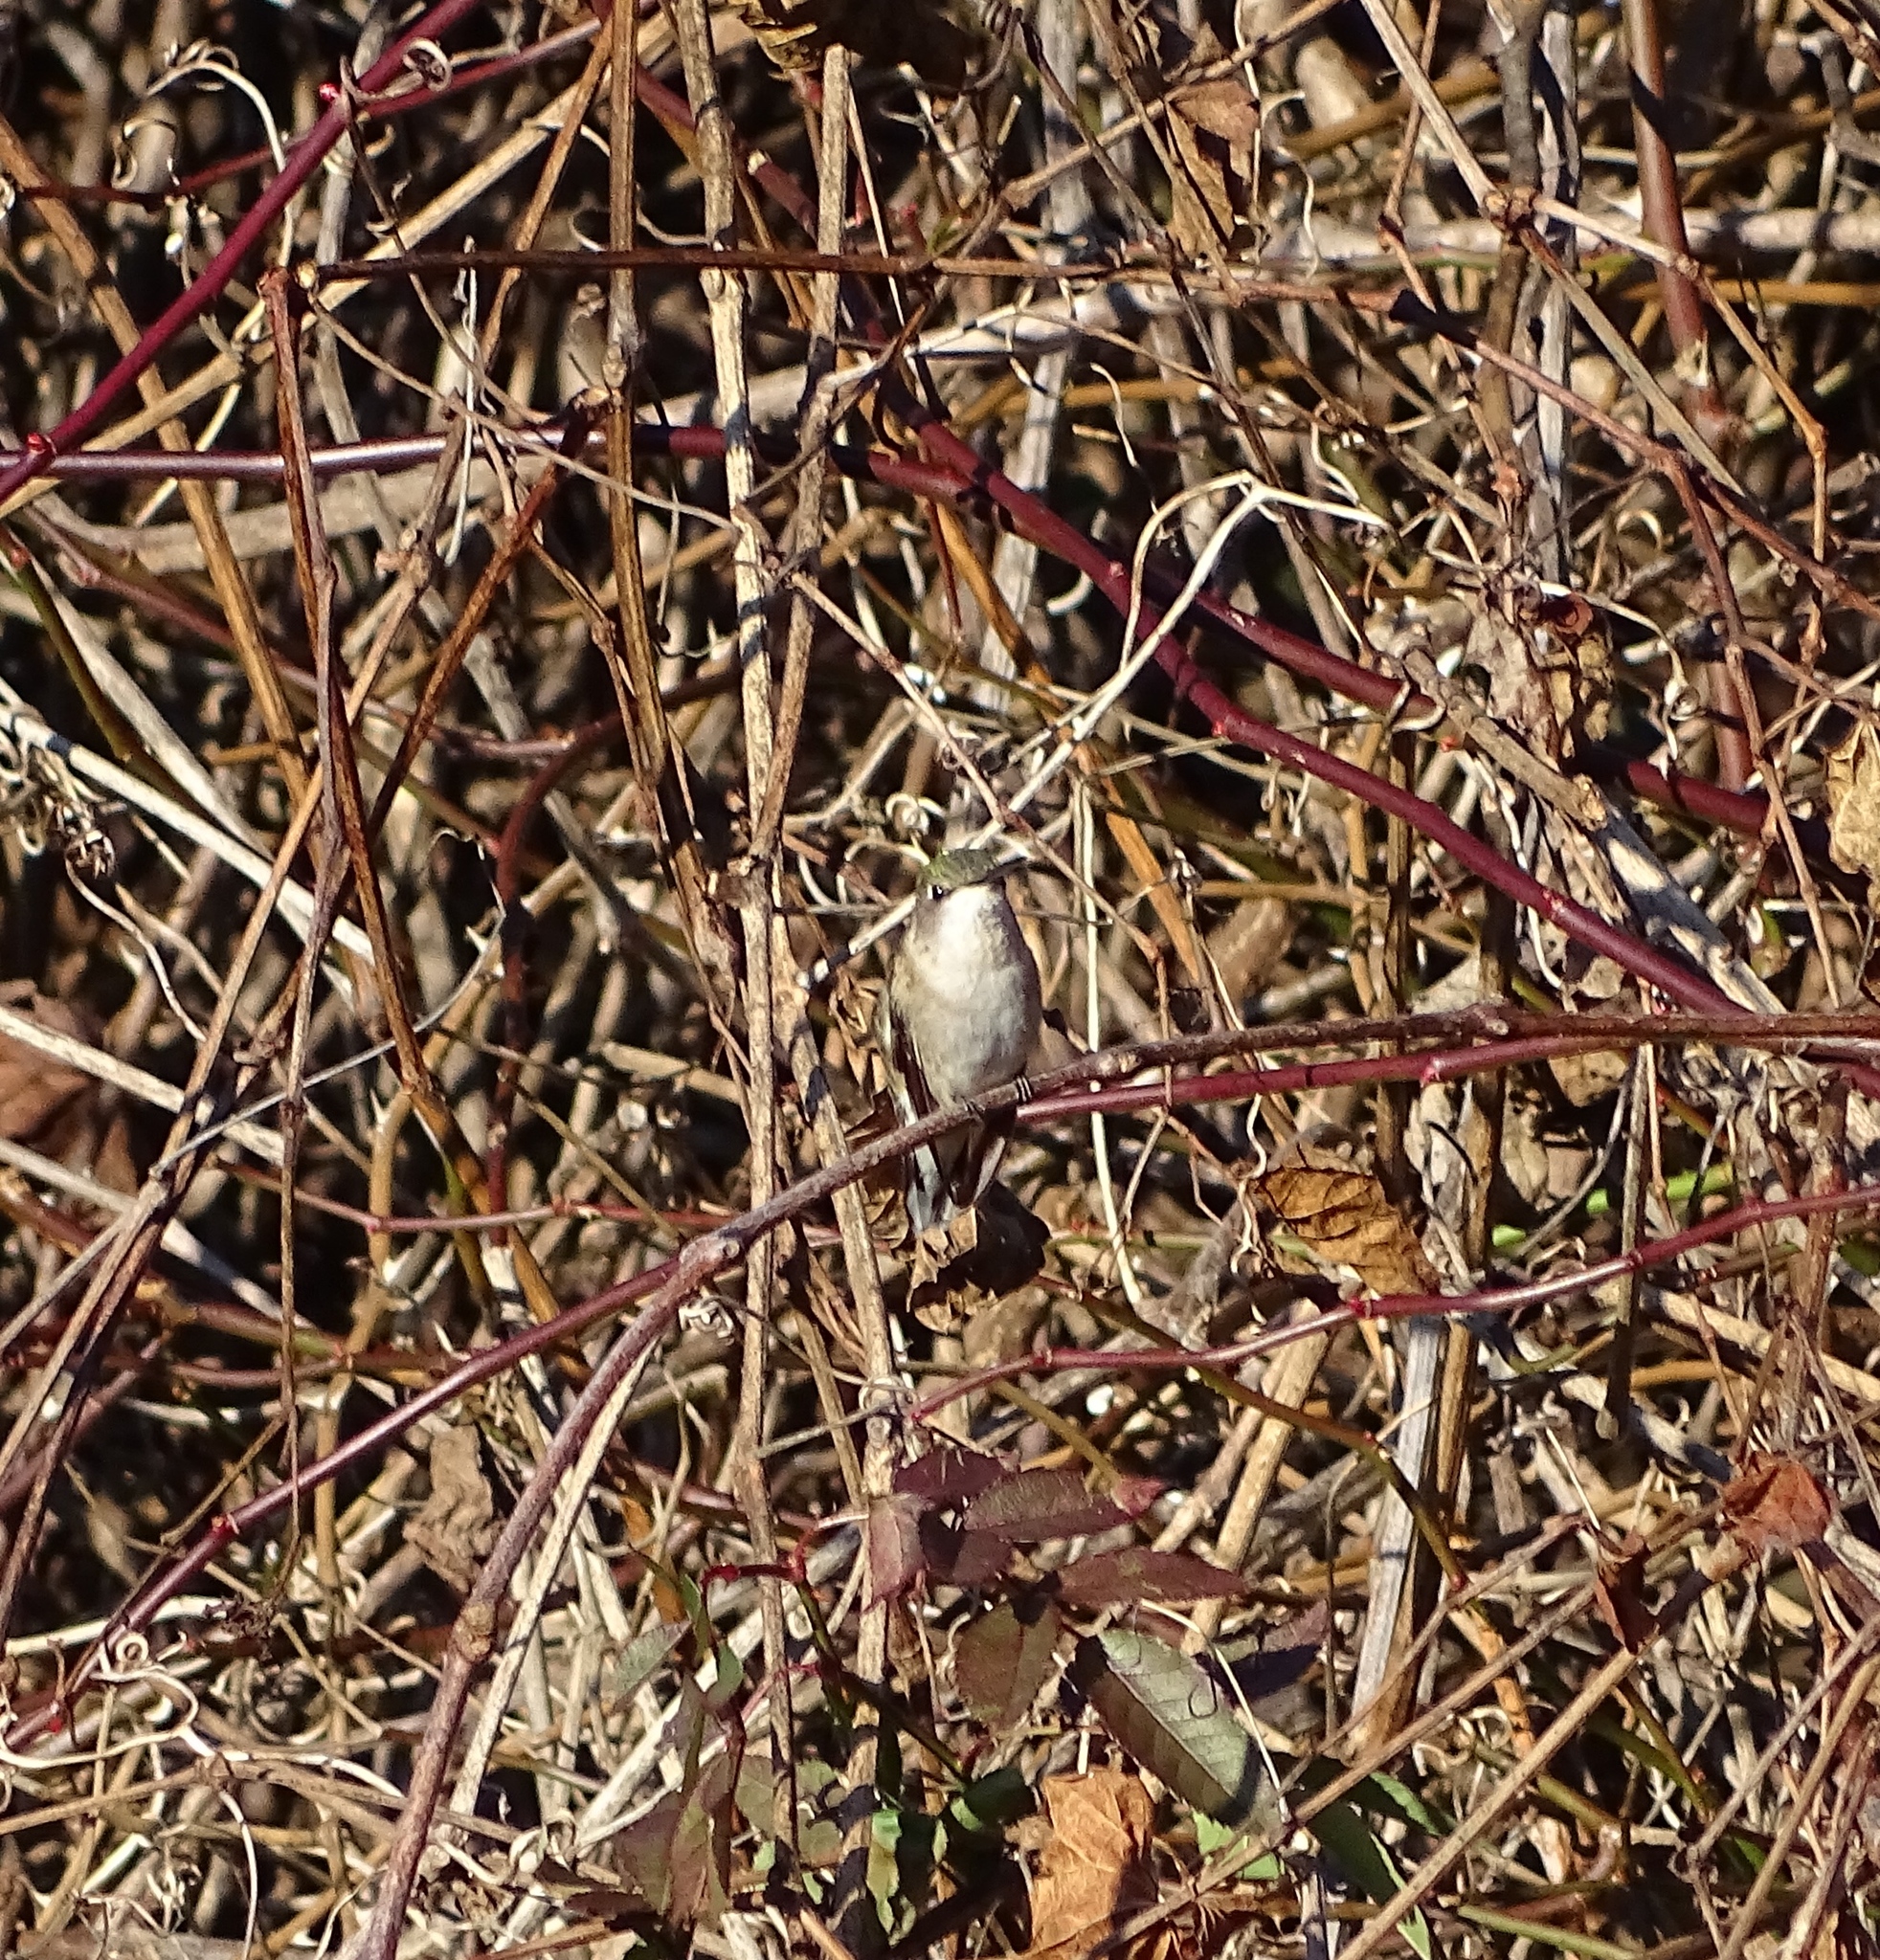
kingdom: Animalia
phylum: Chordata
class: Aves
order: Apodiformes
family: Trochilidae
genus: Archilochus
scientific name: Archilochus colubris
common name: Ruby-throated hummingbird
